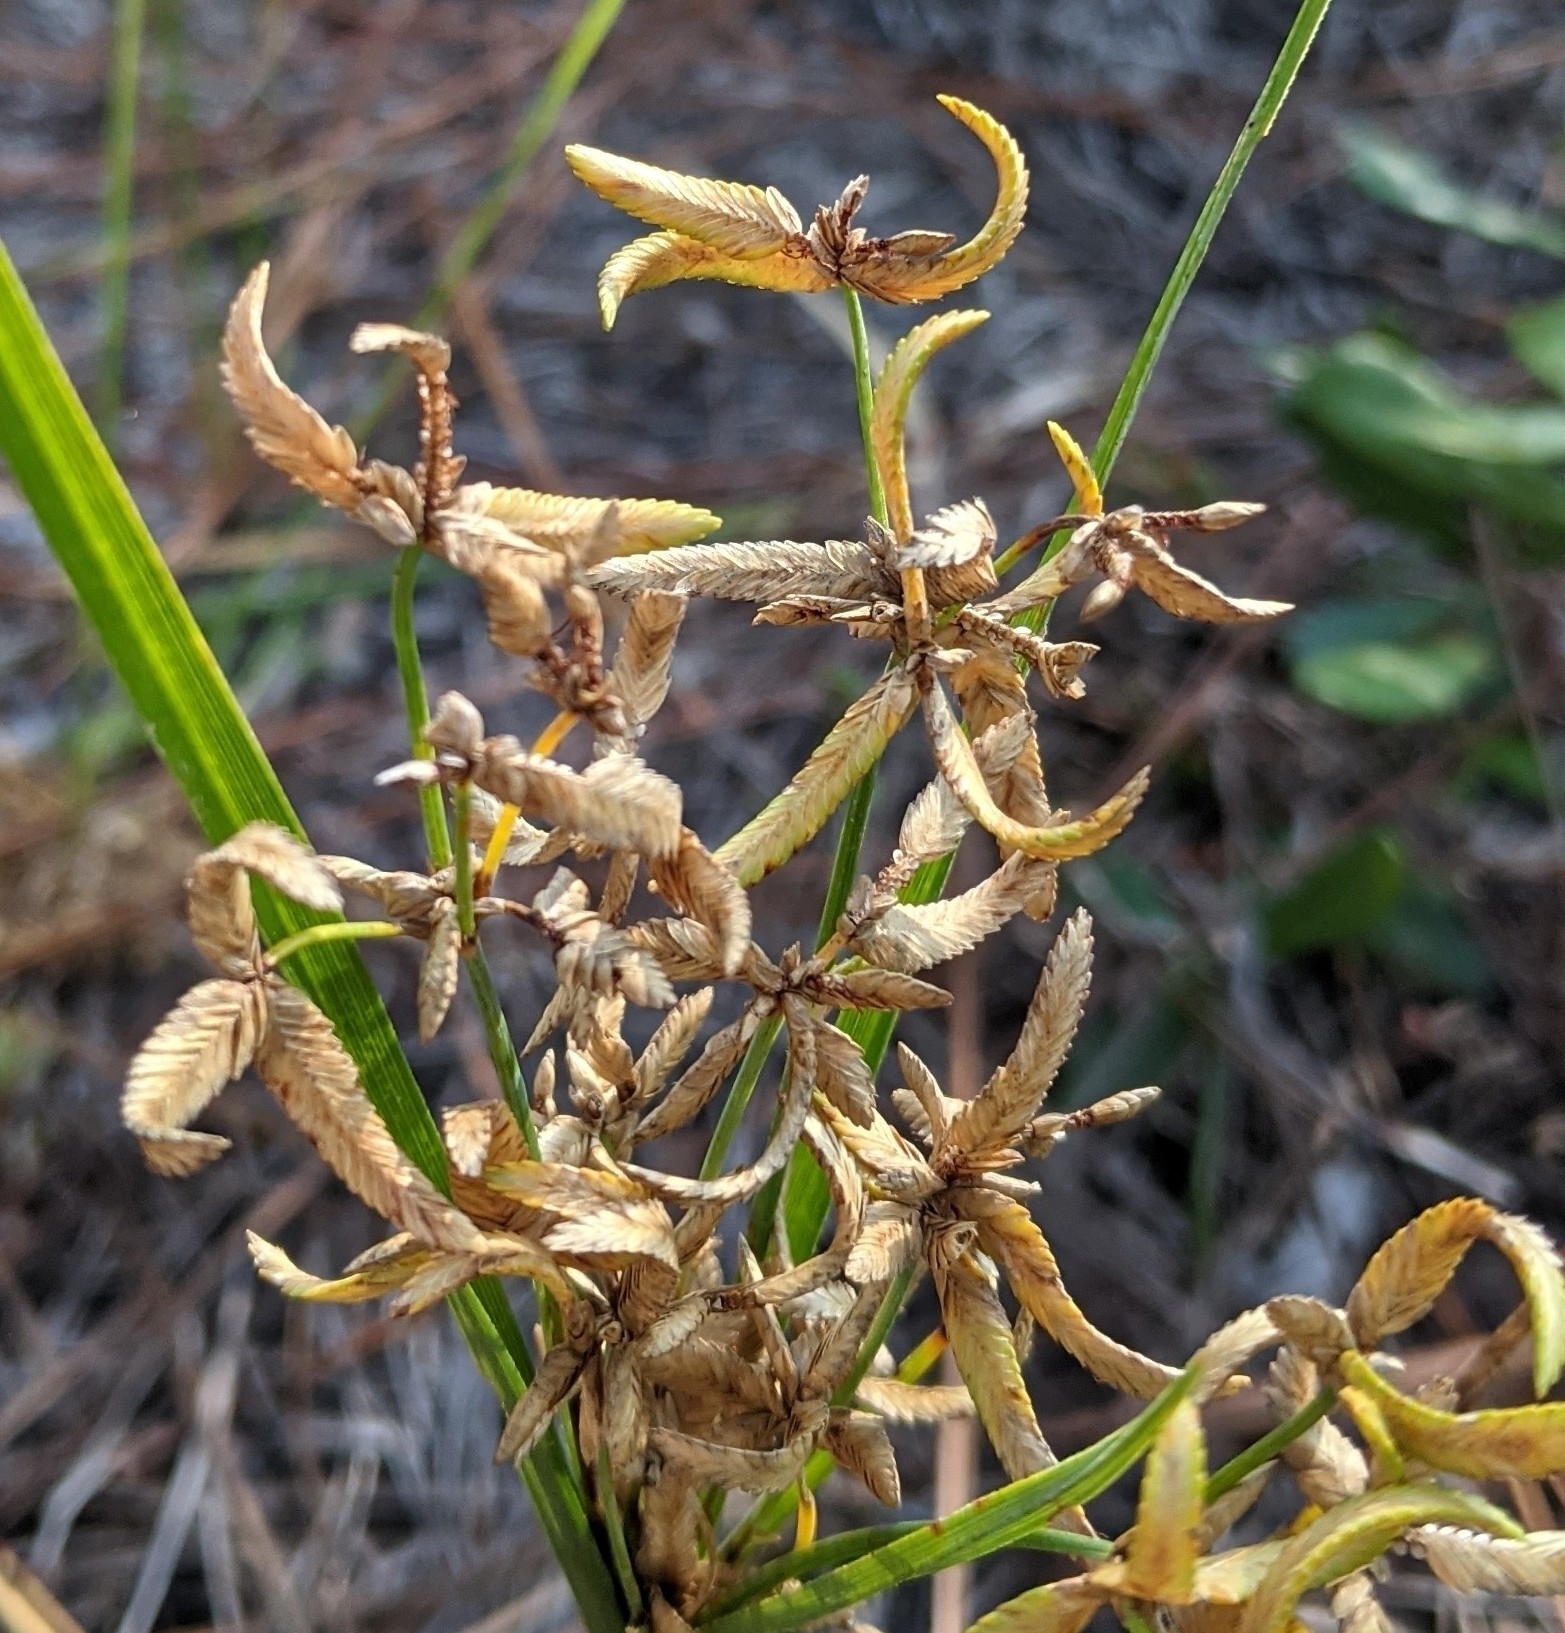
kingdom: Plantae
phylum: Tracheophyta
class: Liliopsida
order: Poales
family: Cyperaceae
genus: Cyperus
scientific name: Cyperus lecontei
